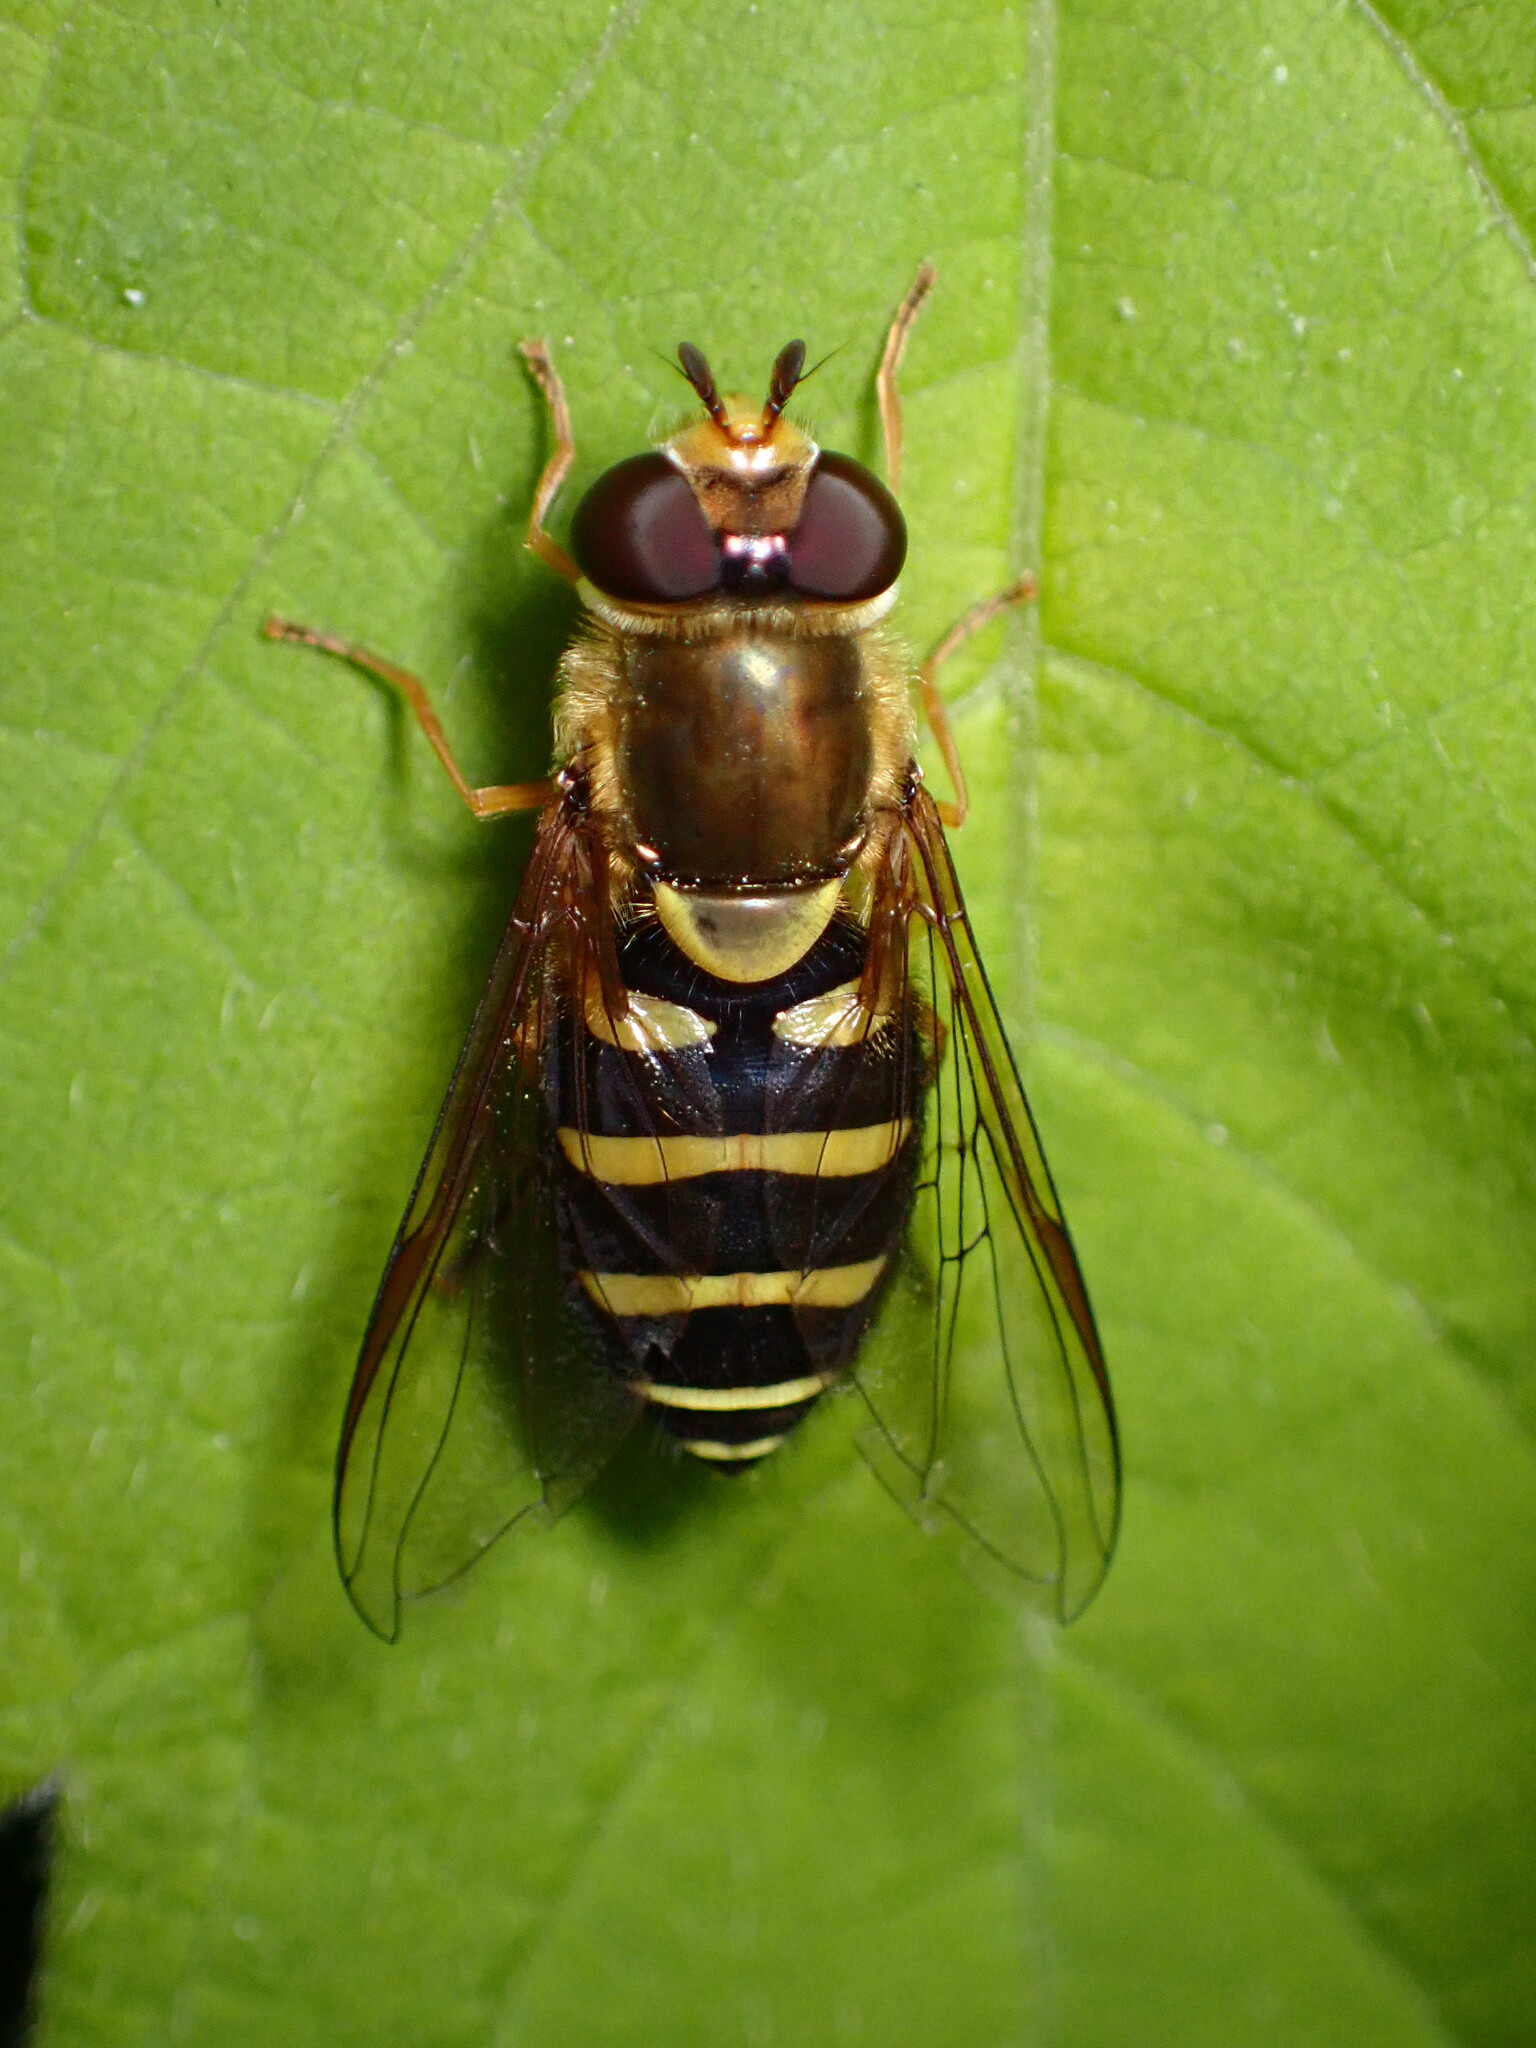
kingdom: Animalia
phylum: Arthropoda
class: Insecta
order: Diptera
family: Syrphidae
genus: Syrphus
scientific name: Syrphus opinator
